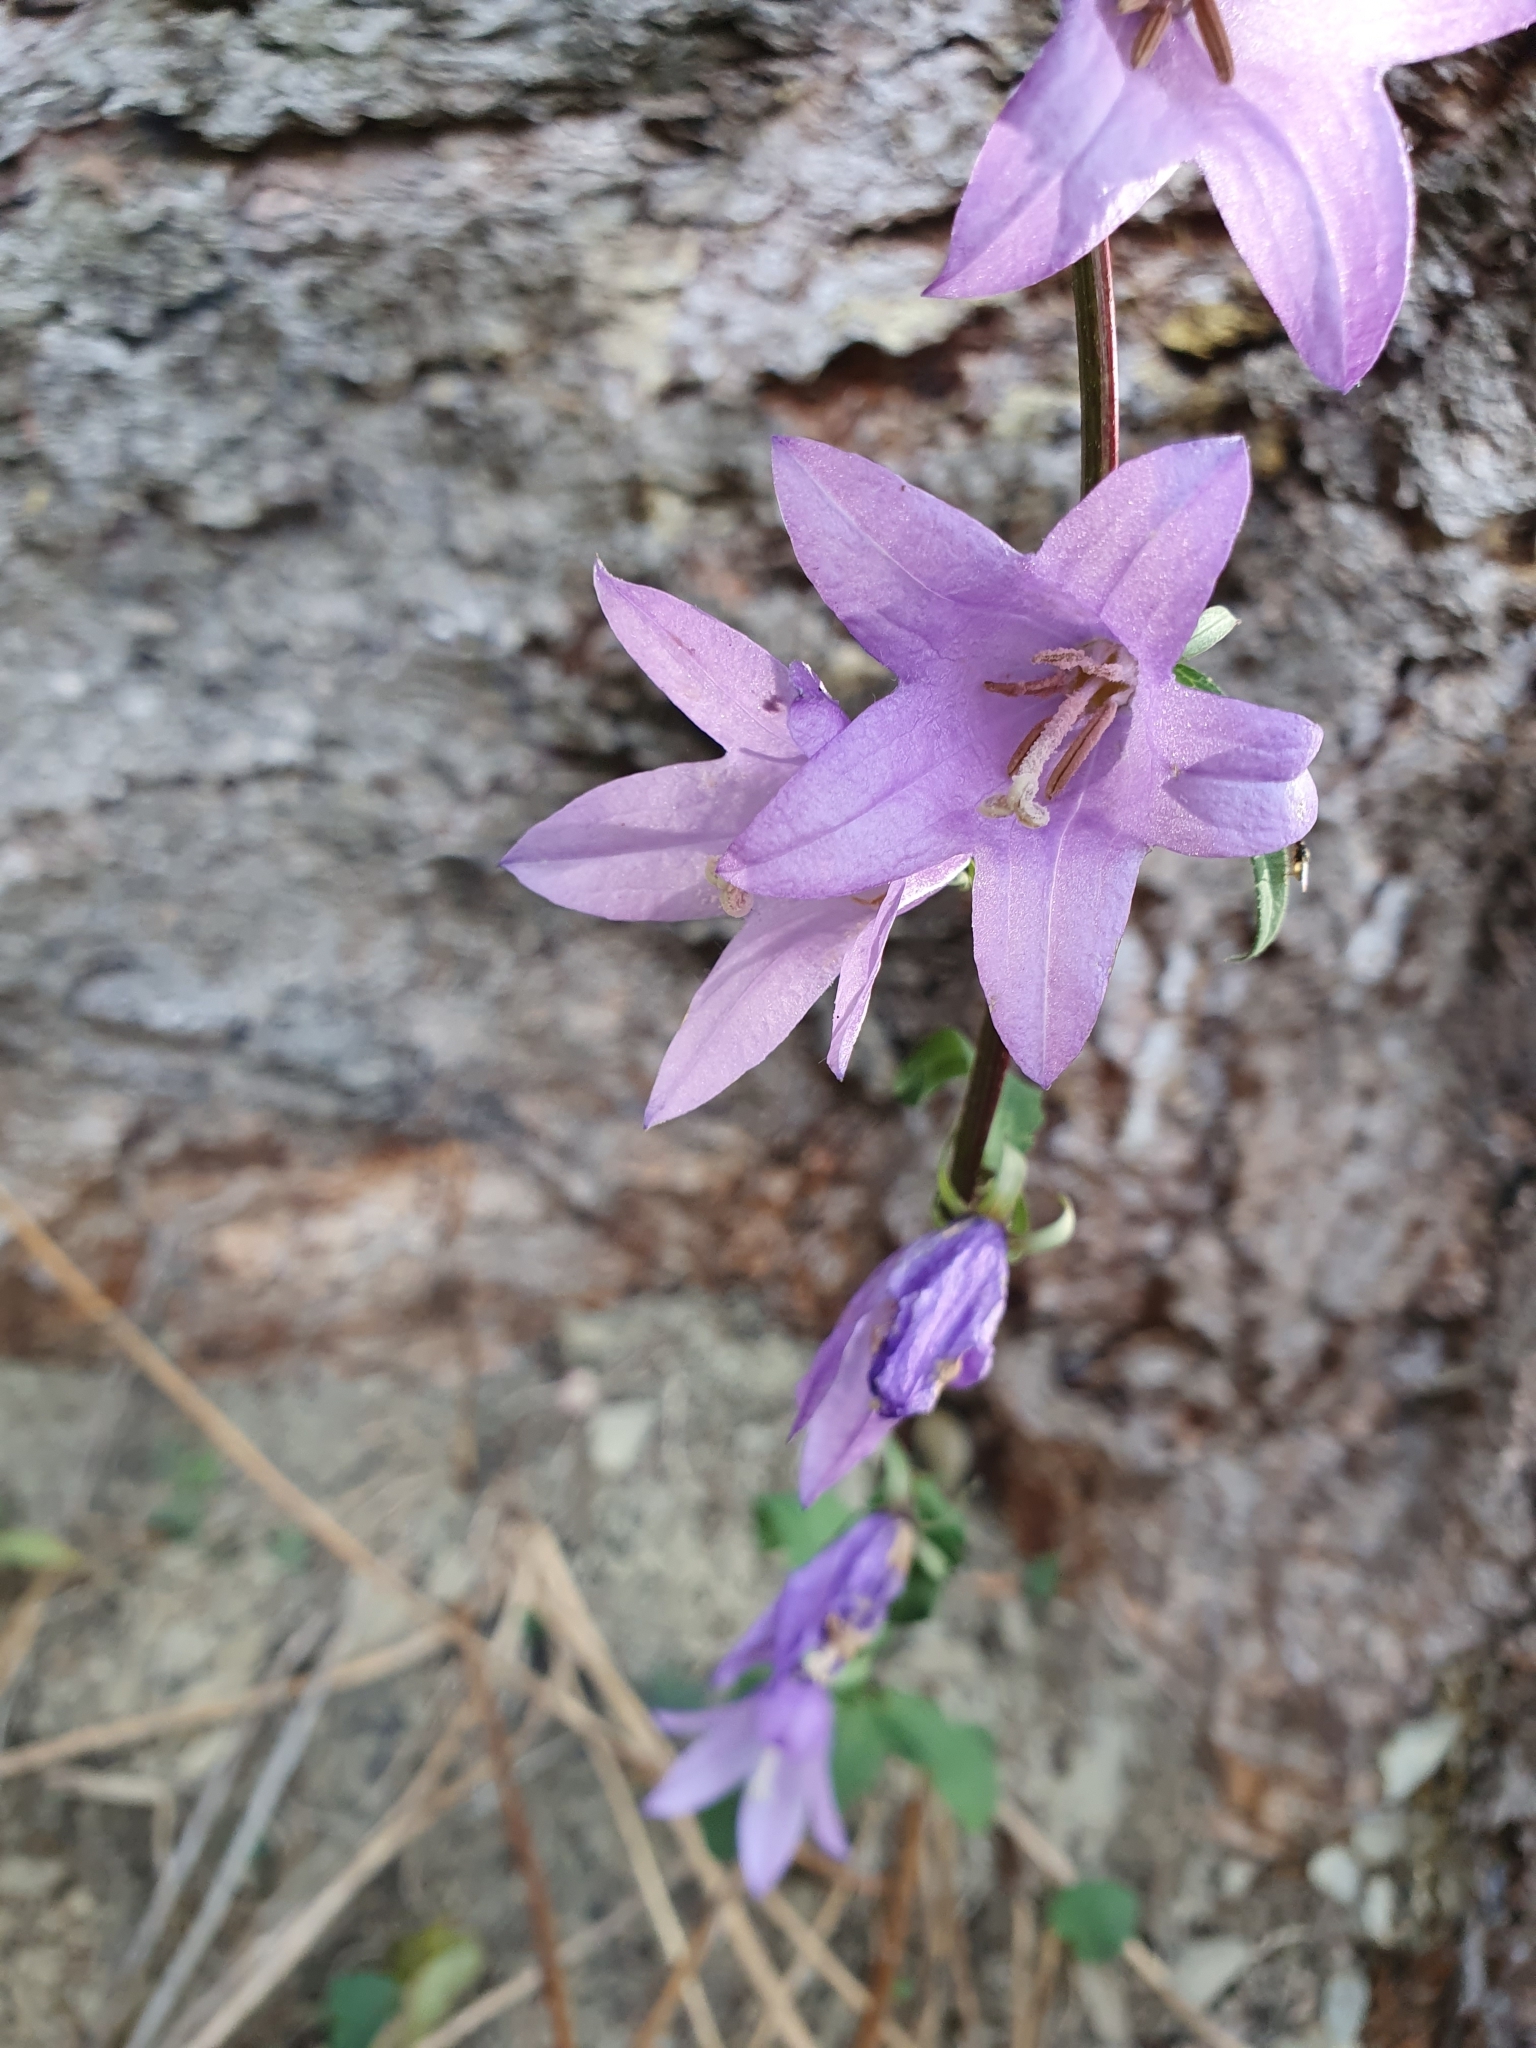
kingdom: Plantae
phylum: Tracheophyta
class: Magnoliopsida
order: Asterales
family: Campanulaceae
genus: Campanula
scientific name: Campanula rapunculoides
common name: Creeping bellflower
